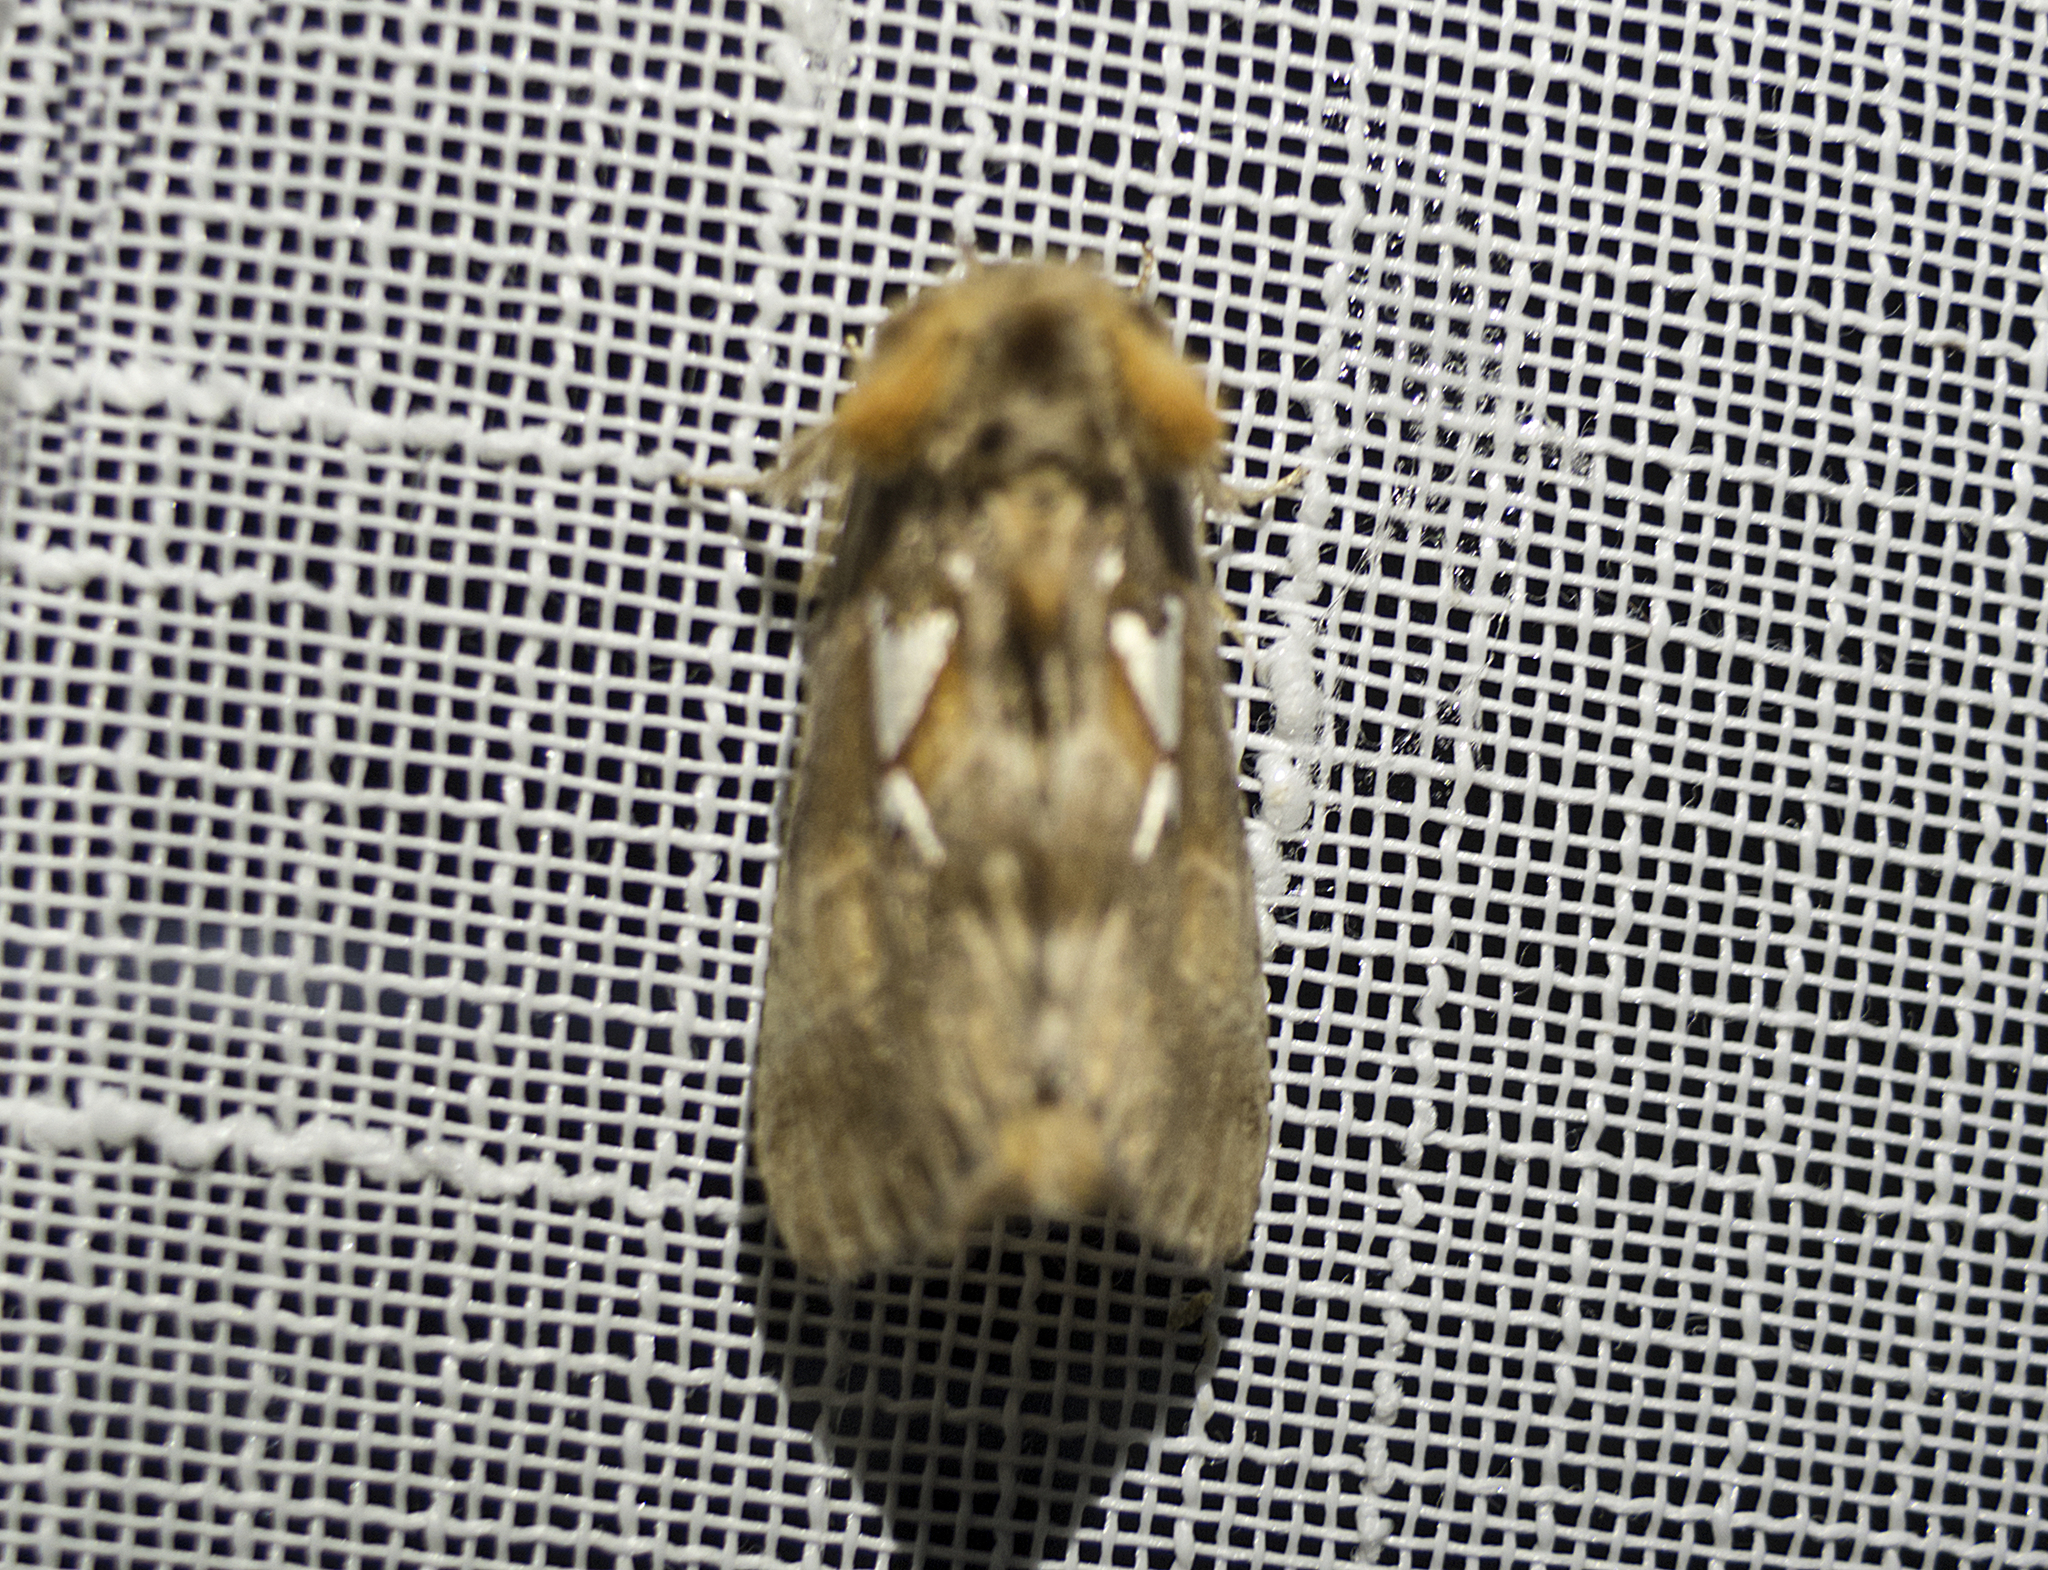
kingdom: Animalia
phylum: Arthropoda
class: Insecta
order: Lepidoptera
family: Notodontidae
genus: Spatalia
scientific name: Spatalia argentina
